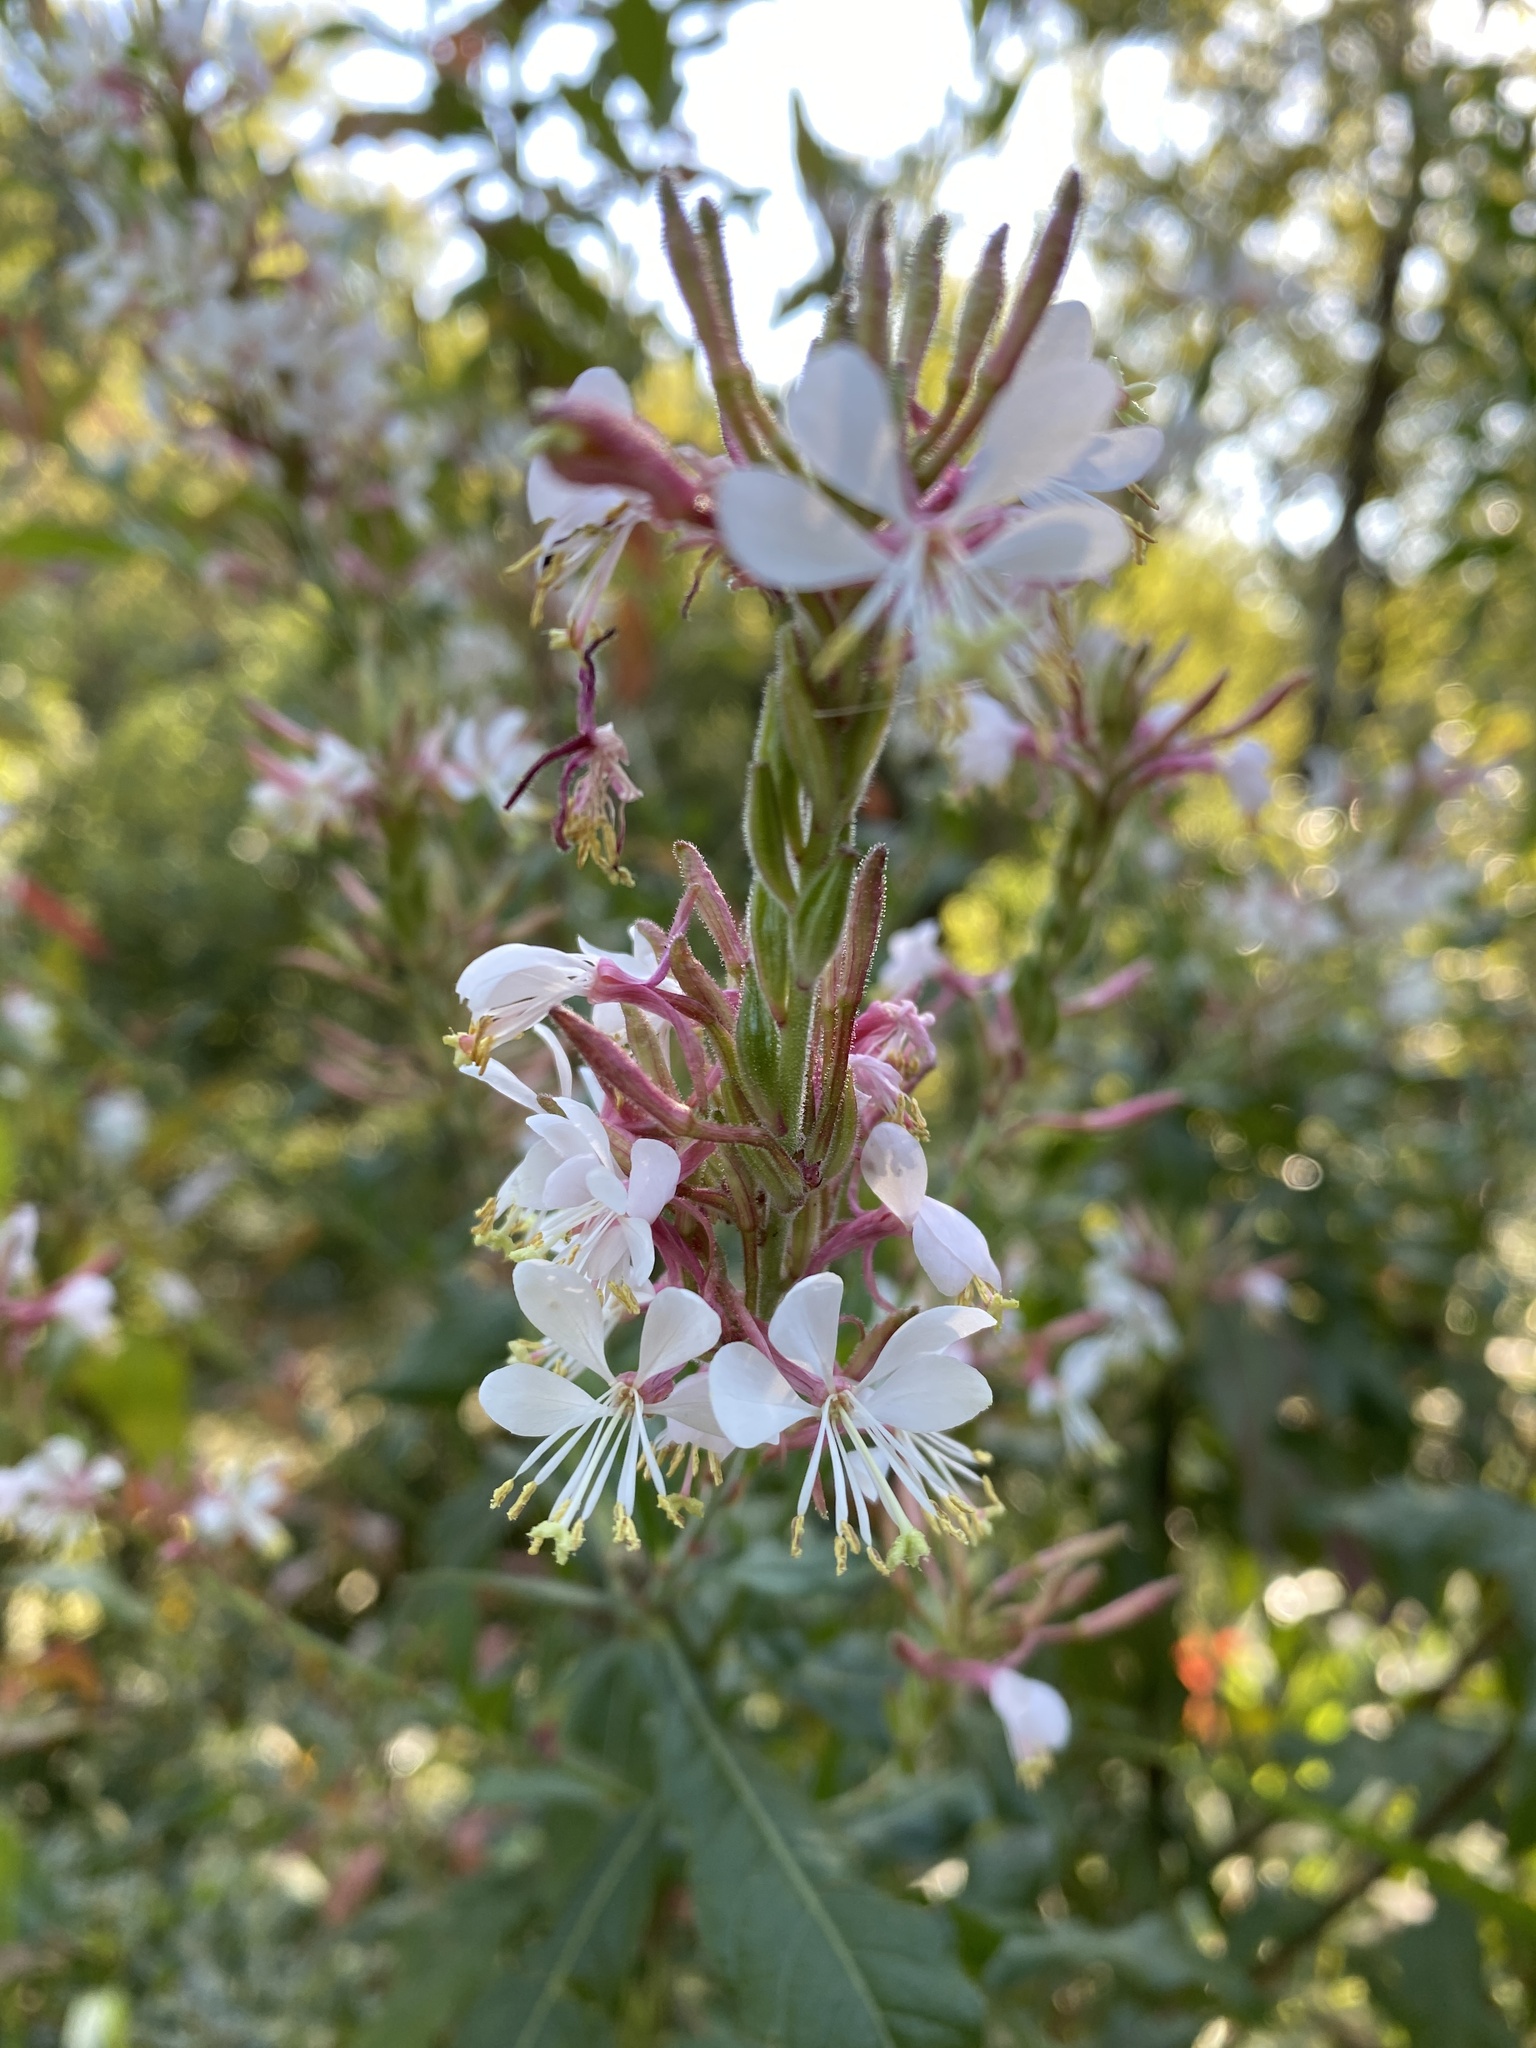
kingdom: Plantae
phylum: Tracheophyta
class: Magnoliopsida
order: Myrtales
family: Onagraceae
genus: Oenothera
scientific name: Oenothera gaura
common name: Biennial beeblossom
